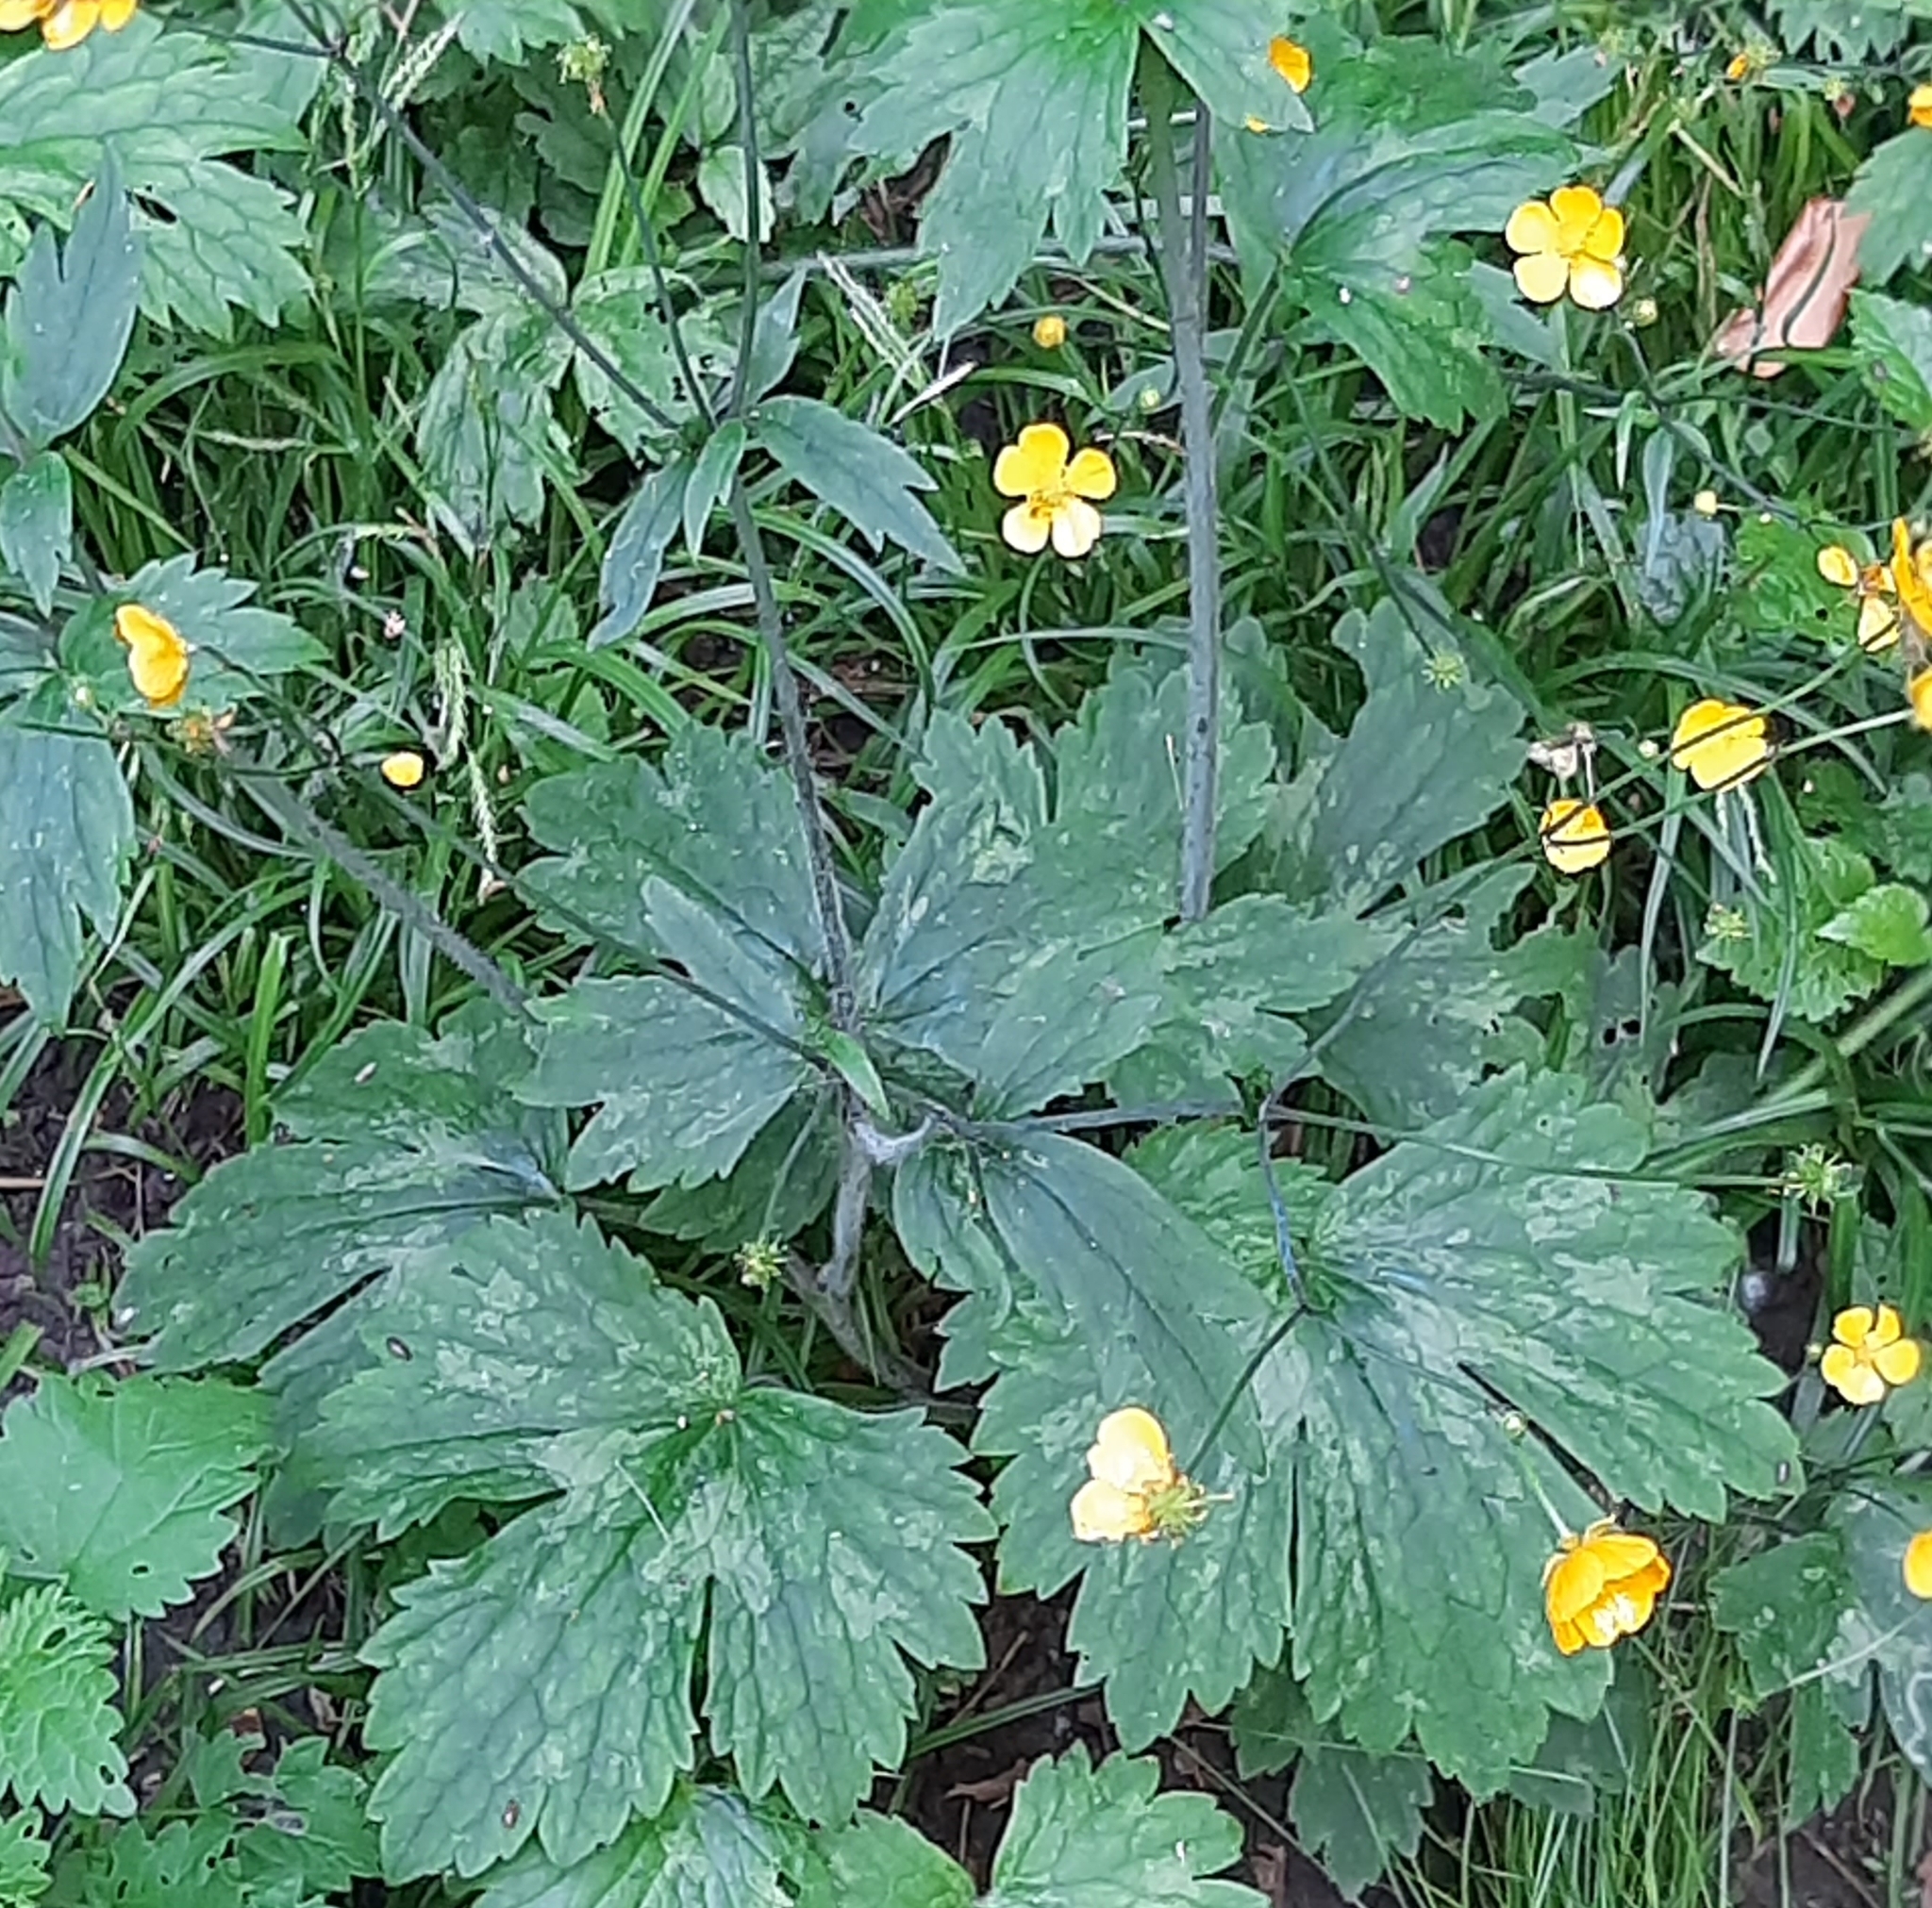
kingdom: Animalia
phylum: Arthropoda
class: Malacostraca
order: Isopoda
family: Philosciidae
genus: Philoscia
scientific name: Philoscia affinis
